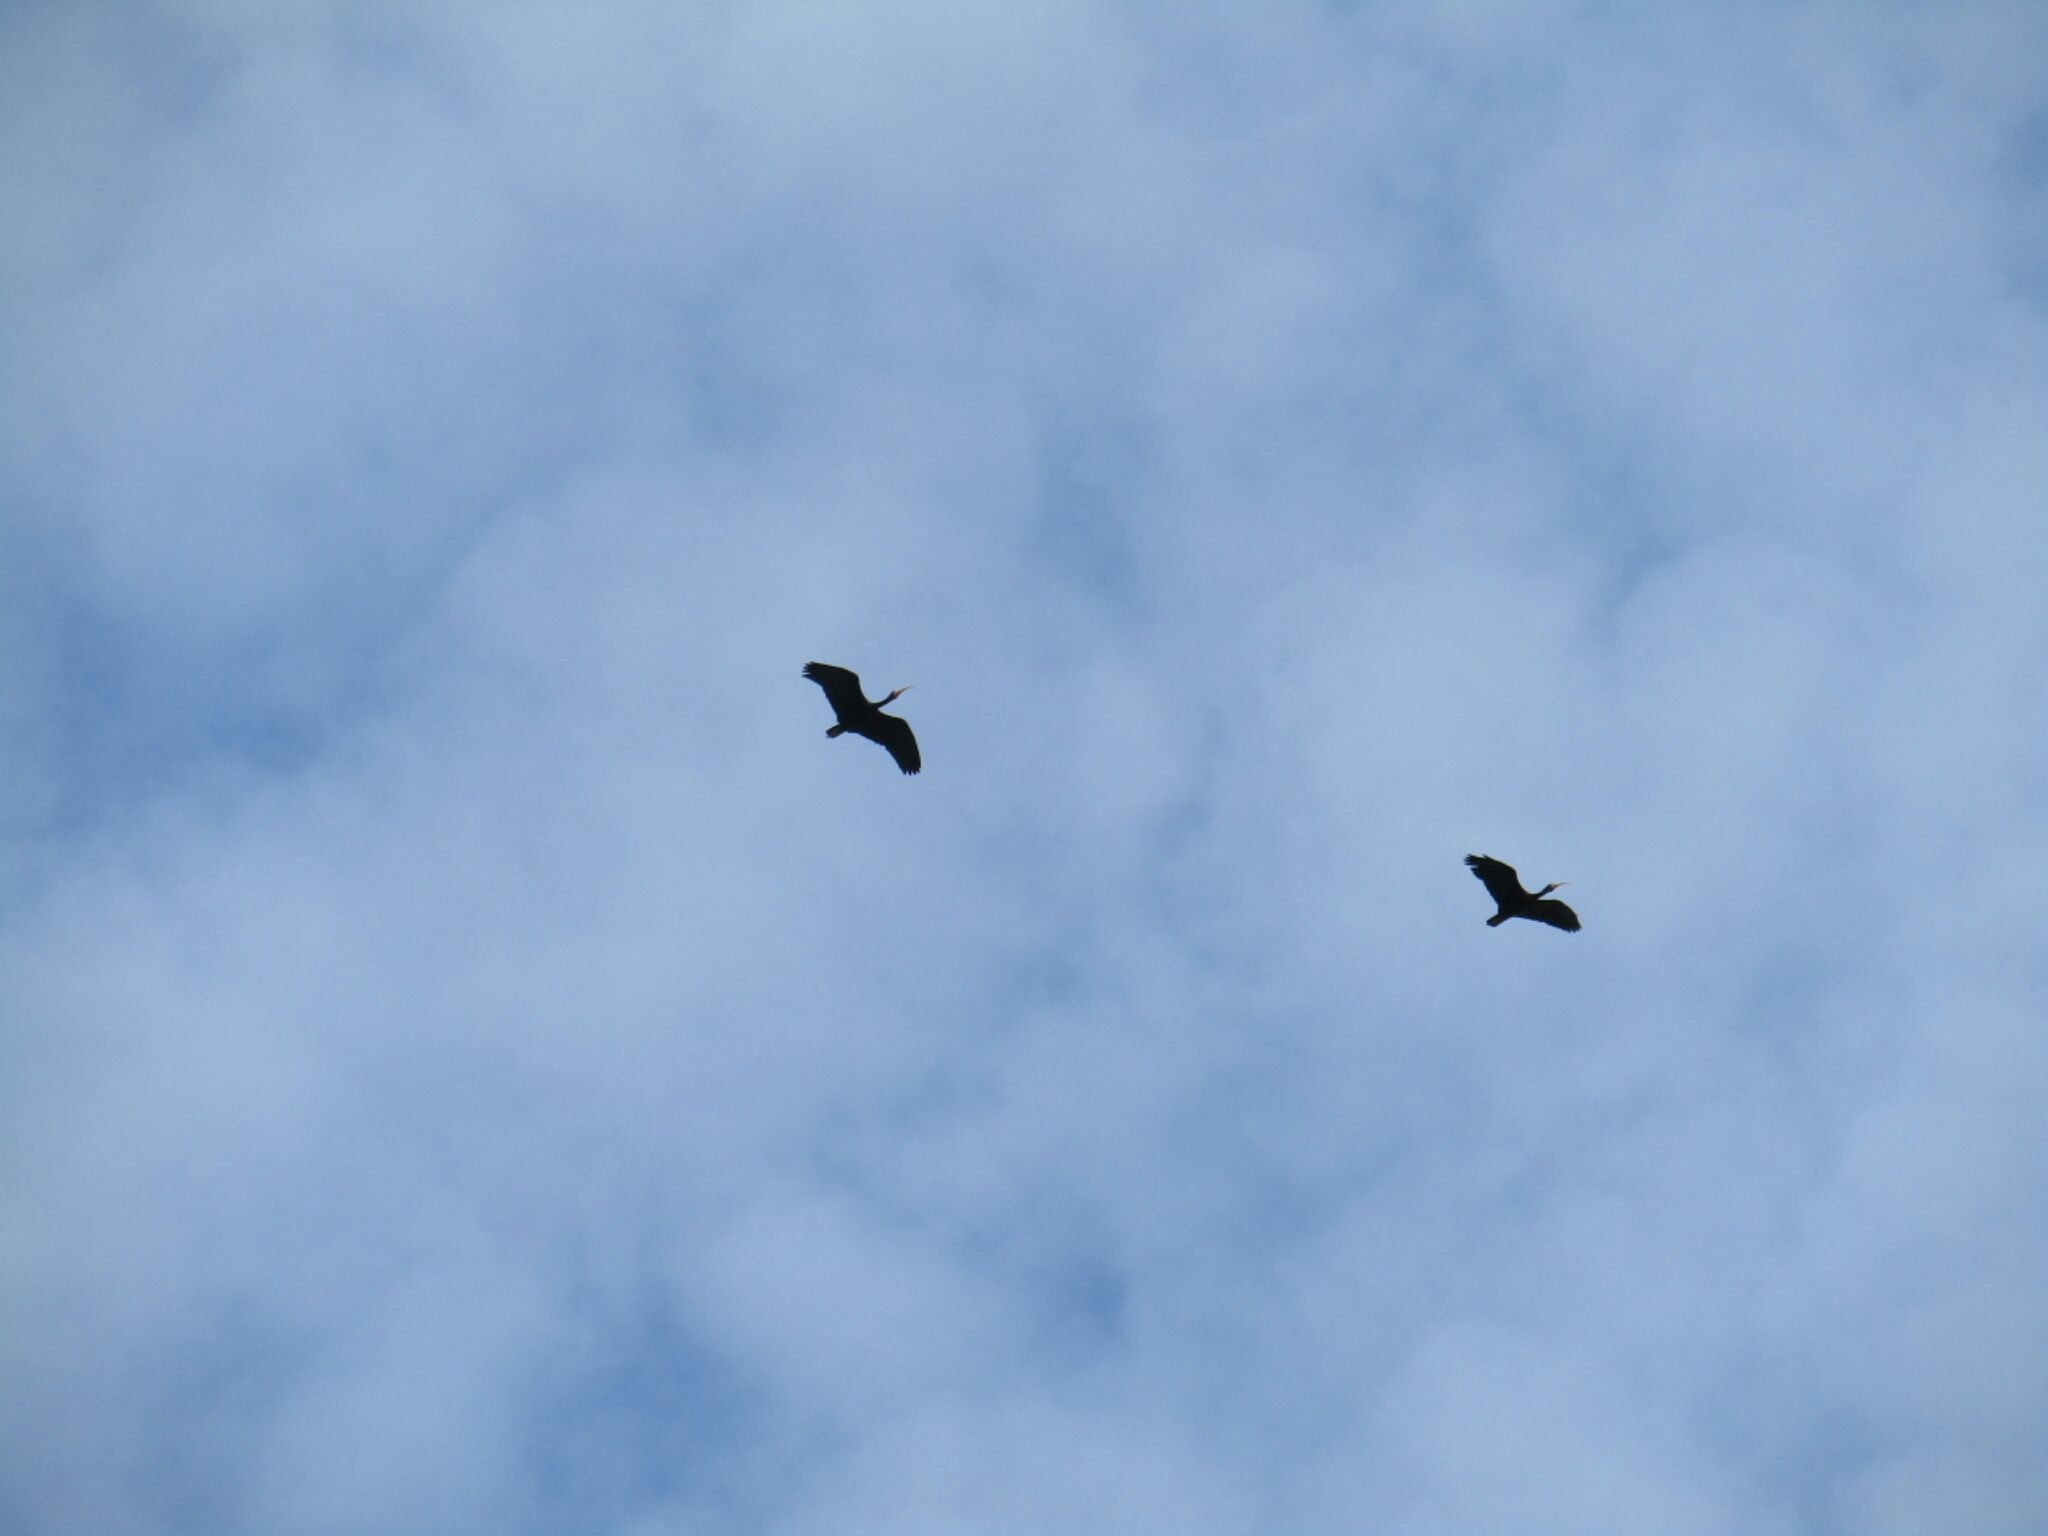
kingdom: Animalia
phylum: Chordata
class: Aves
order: Pelecaniformes
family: Threskiornithidae
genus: Phimosus
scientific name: Phimosus infuscatus
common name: Bare-faced ibis
